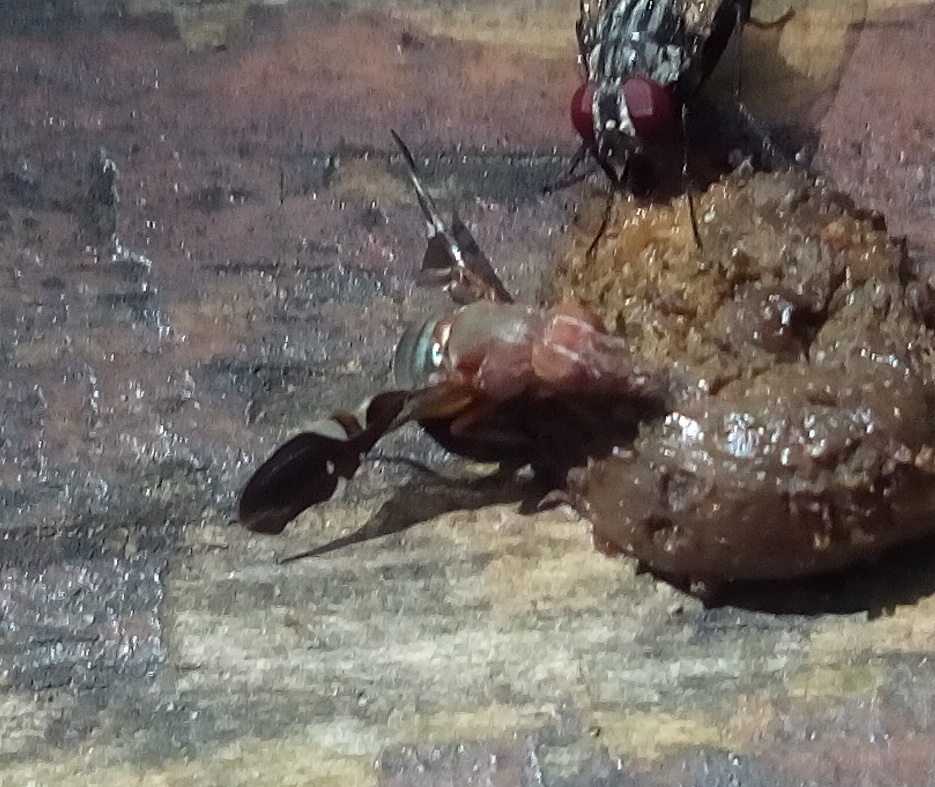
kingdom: Animalia
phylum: Arthropoda
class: Insecta
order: Diptera
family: Ulidiidae
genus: Delphinia
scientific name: Delphinia picta
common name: Common picture-winged fly
